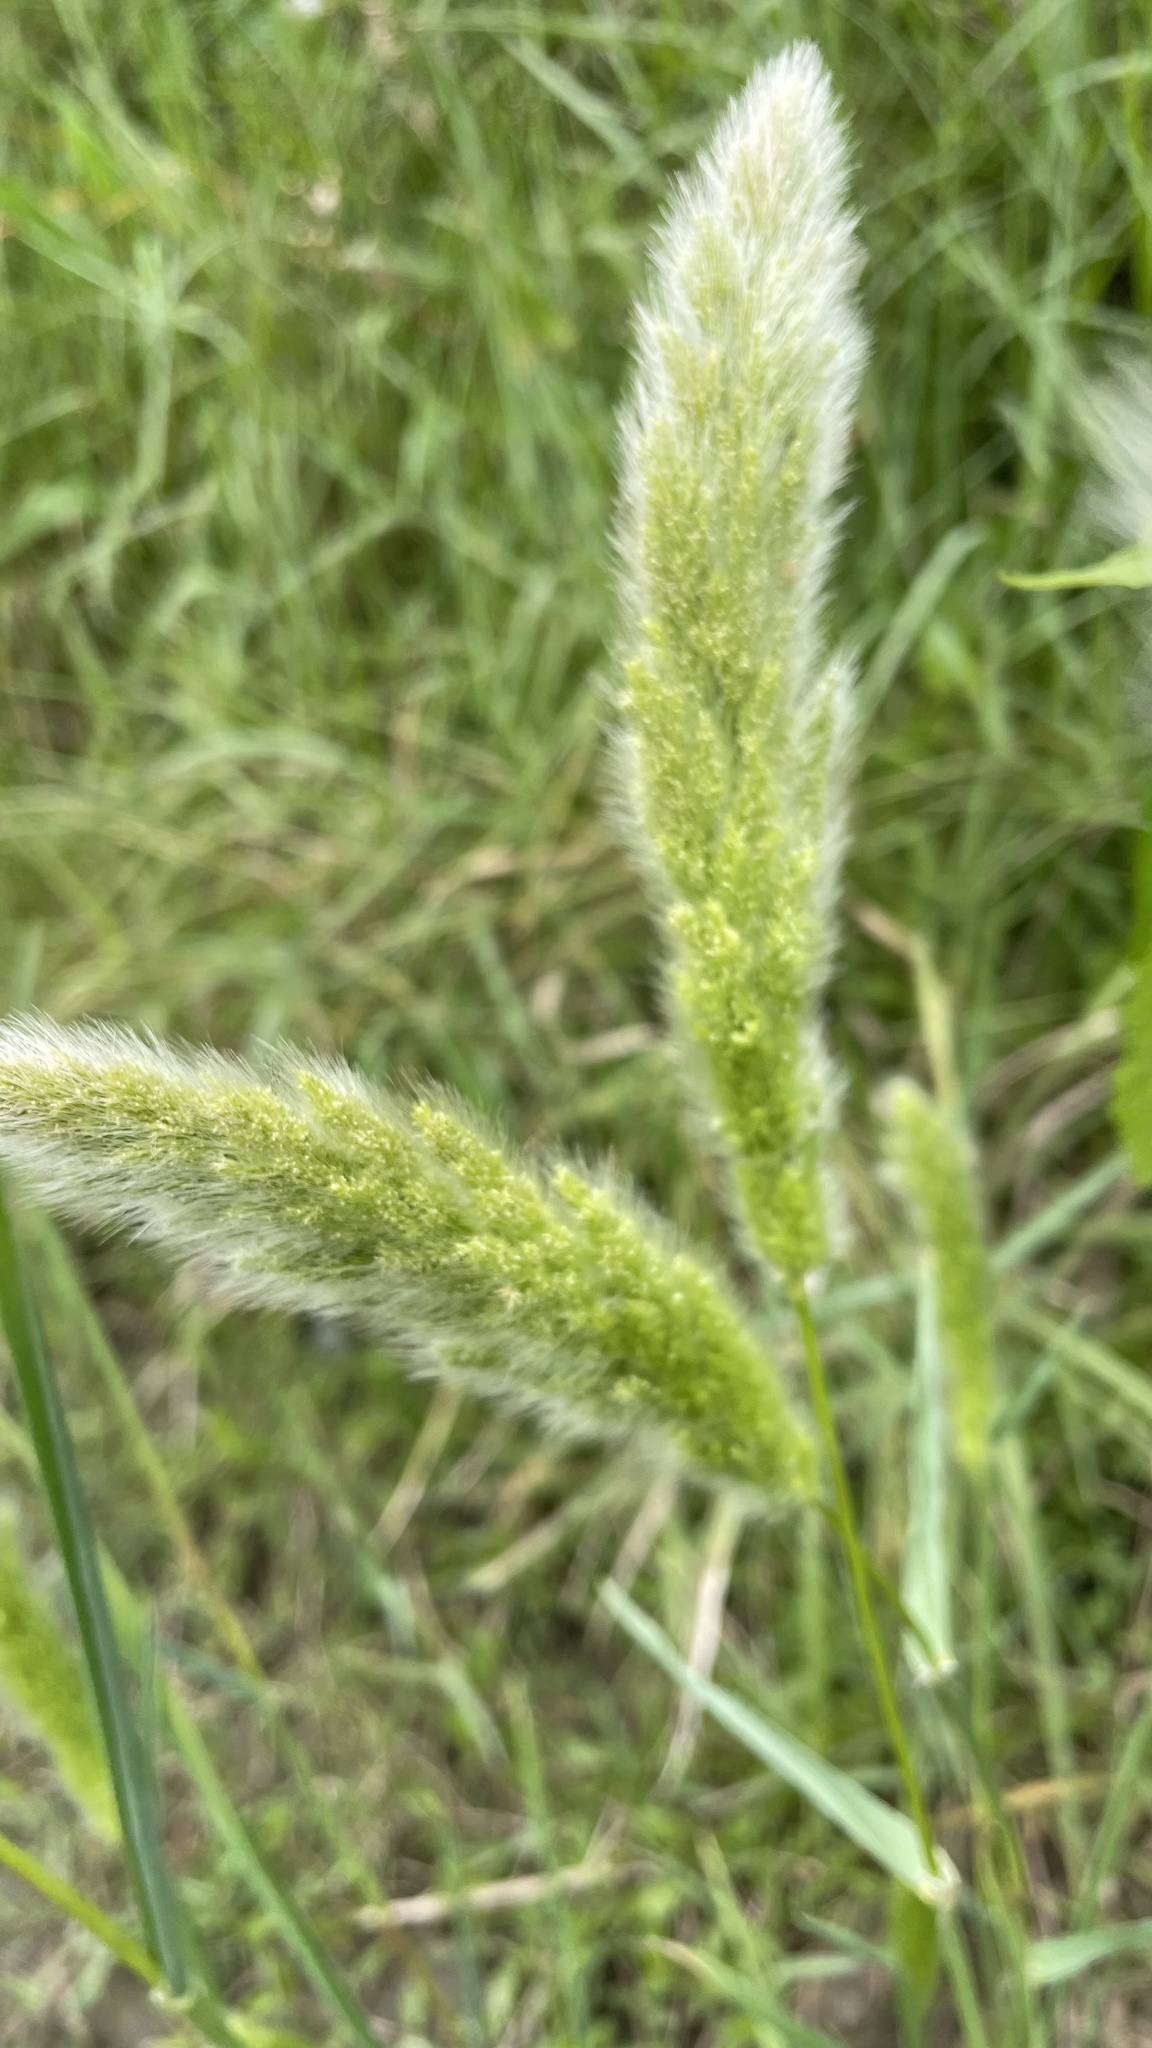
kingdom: Plantae
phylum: Tracheophyta
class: Liliopsida
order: Poales
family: Poaceae
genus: Polypogon
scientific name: Polypogon monspeliensis
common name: Annual rabbitsfoot grass
